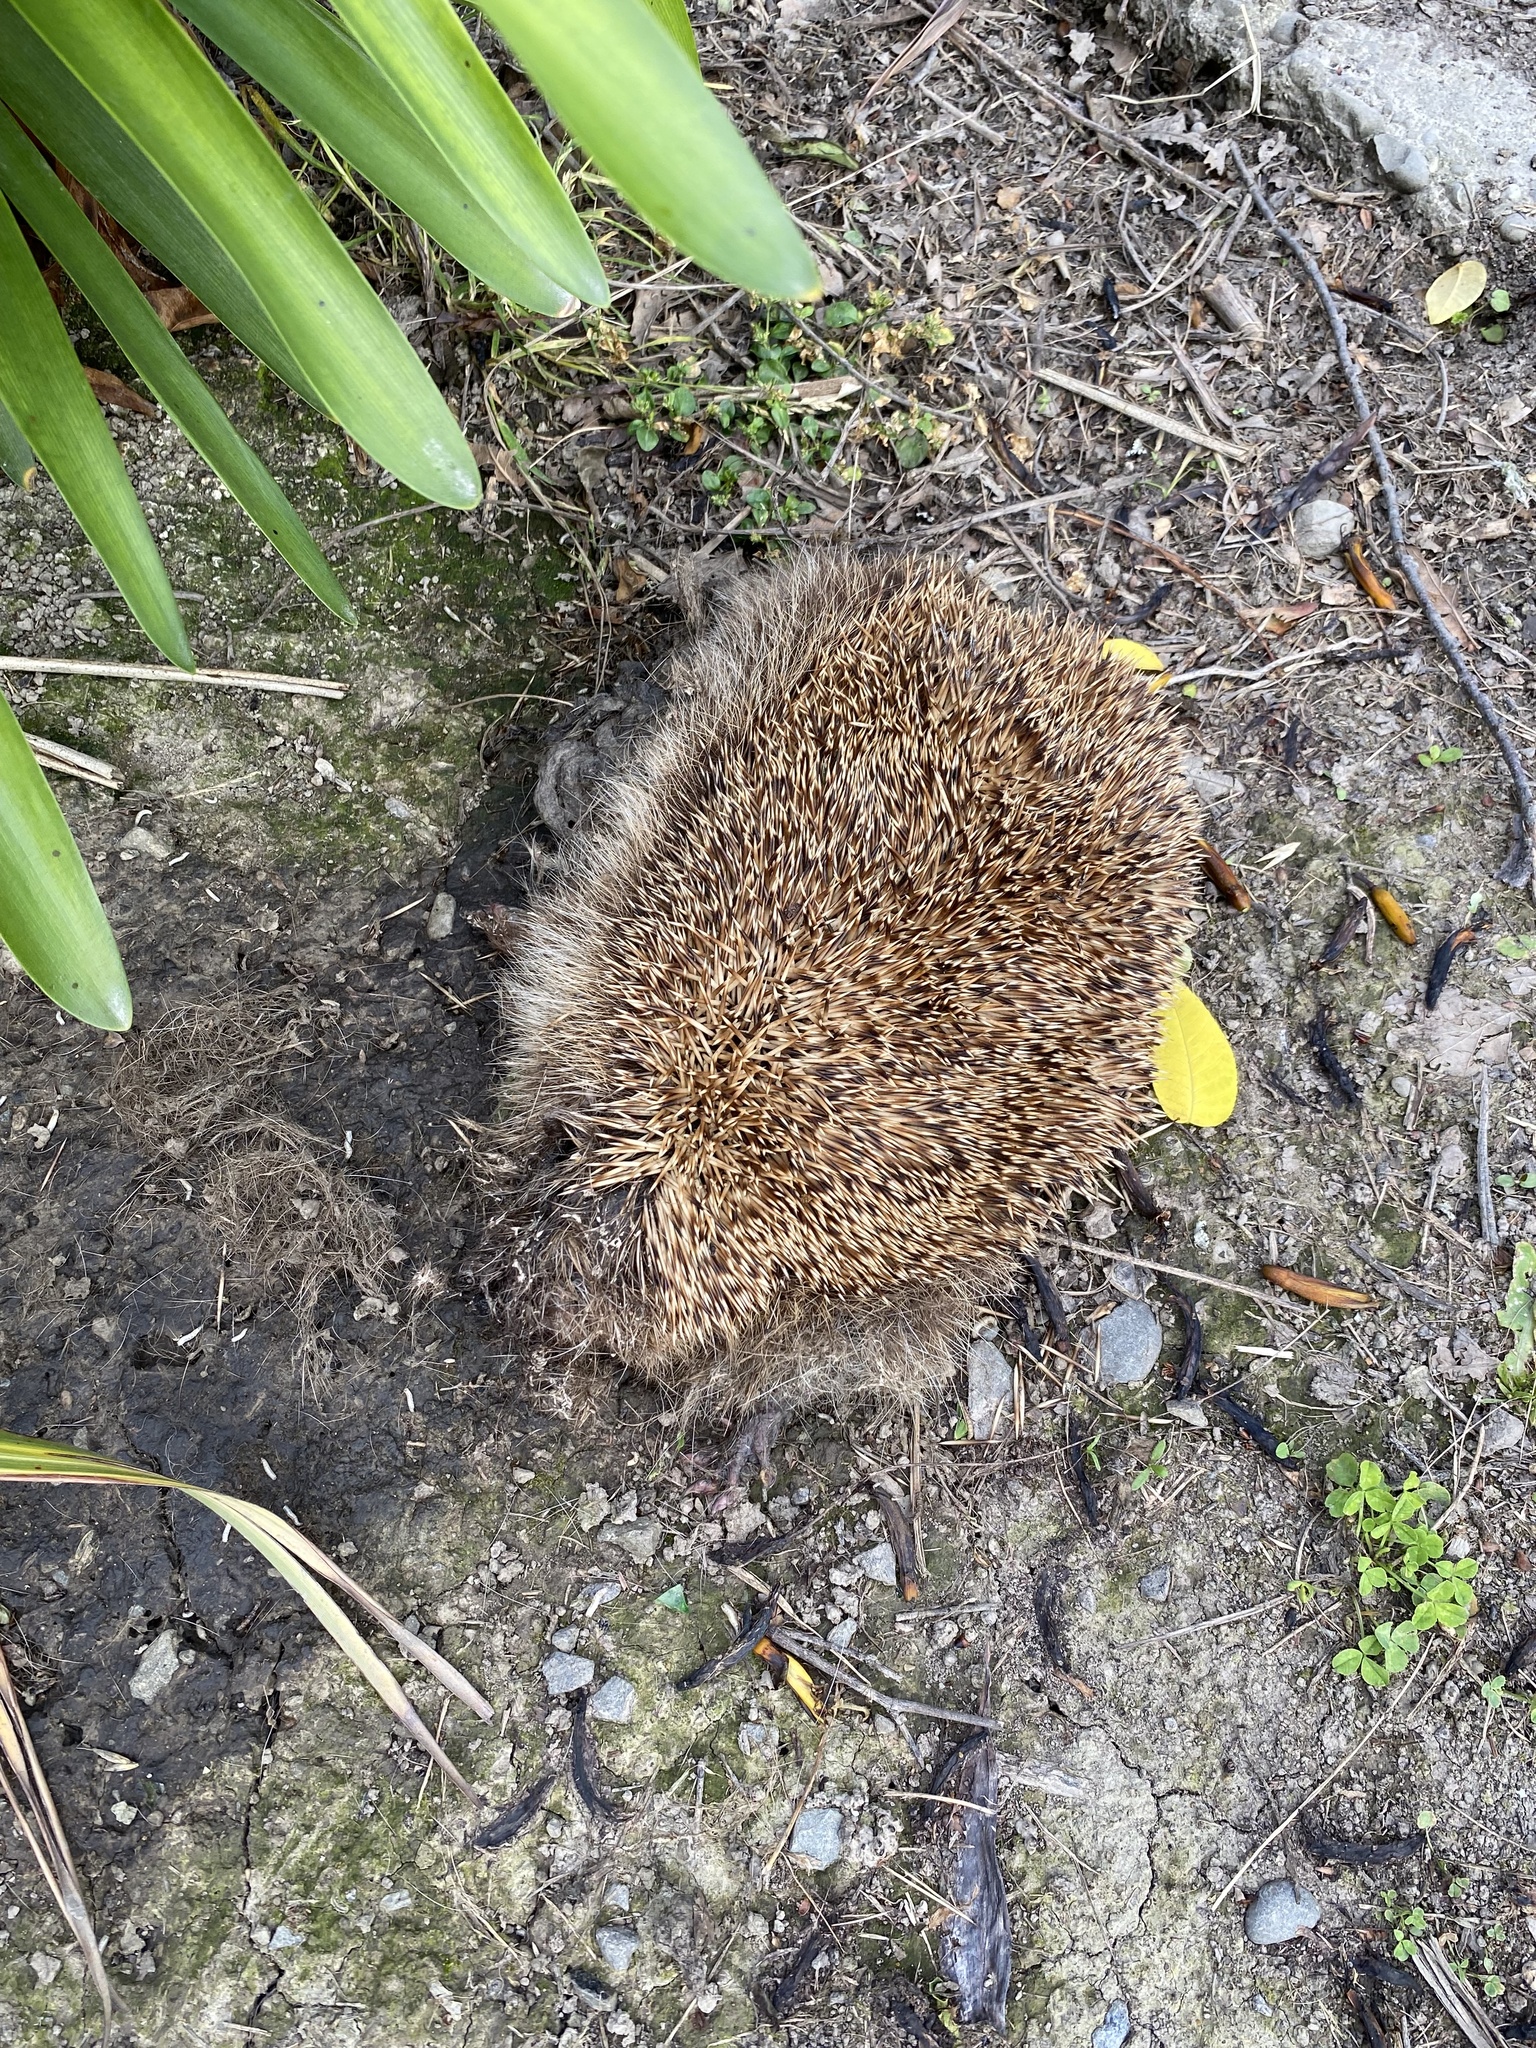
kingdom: Animalia
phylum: Chordata
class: Mammalia
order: Erinaceomorpha
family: Erinaceidae
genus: Erinaceus
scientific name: Erinaceus europaeus
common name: West european hedgehog
